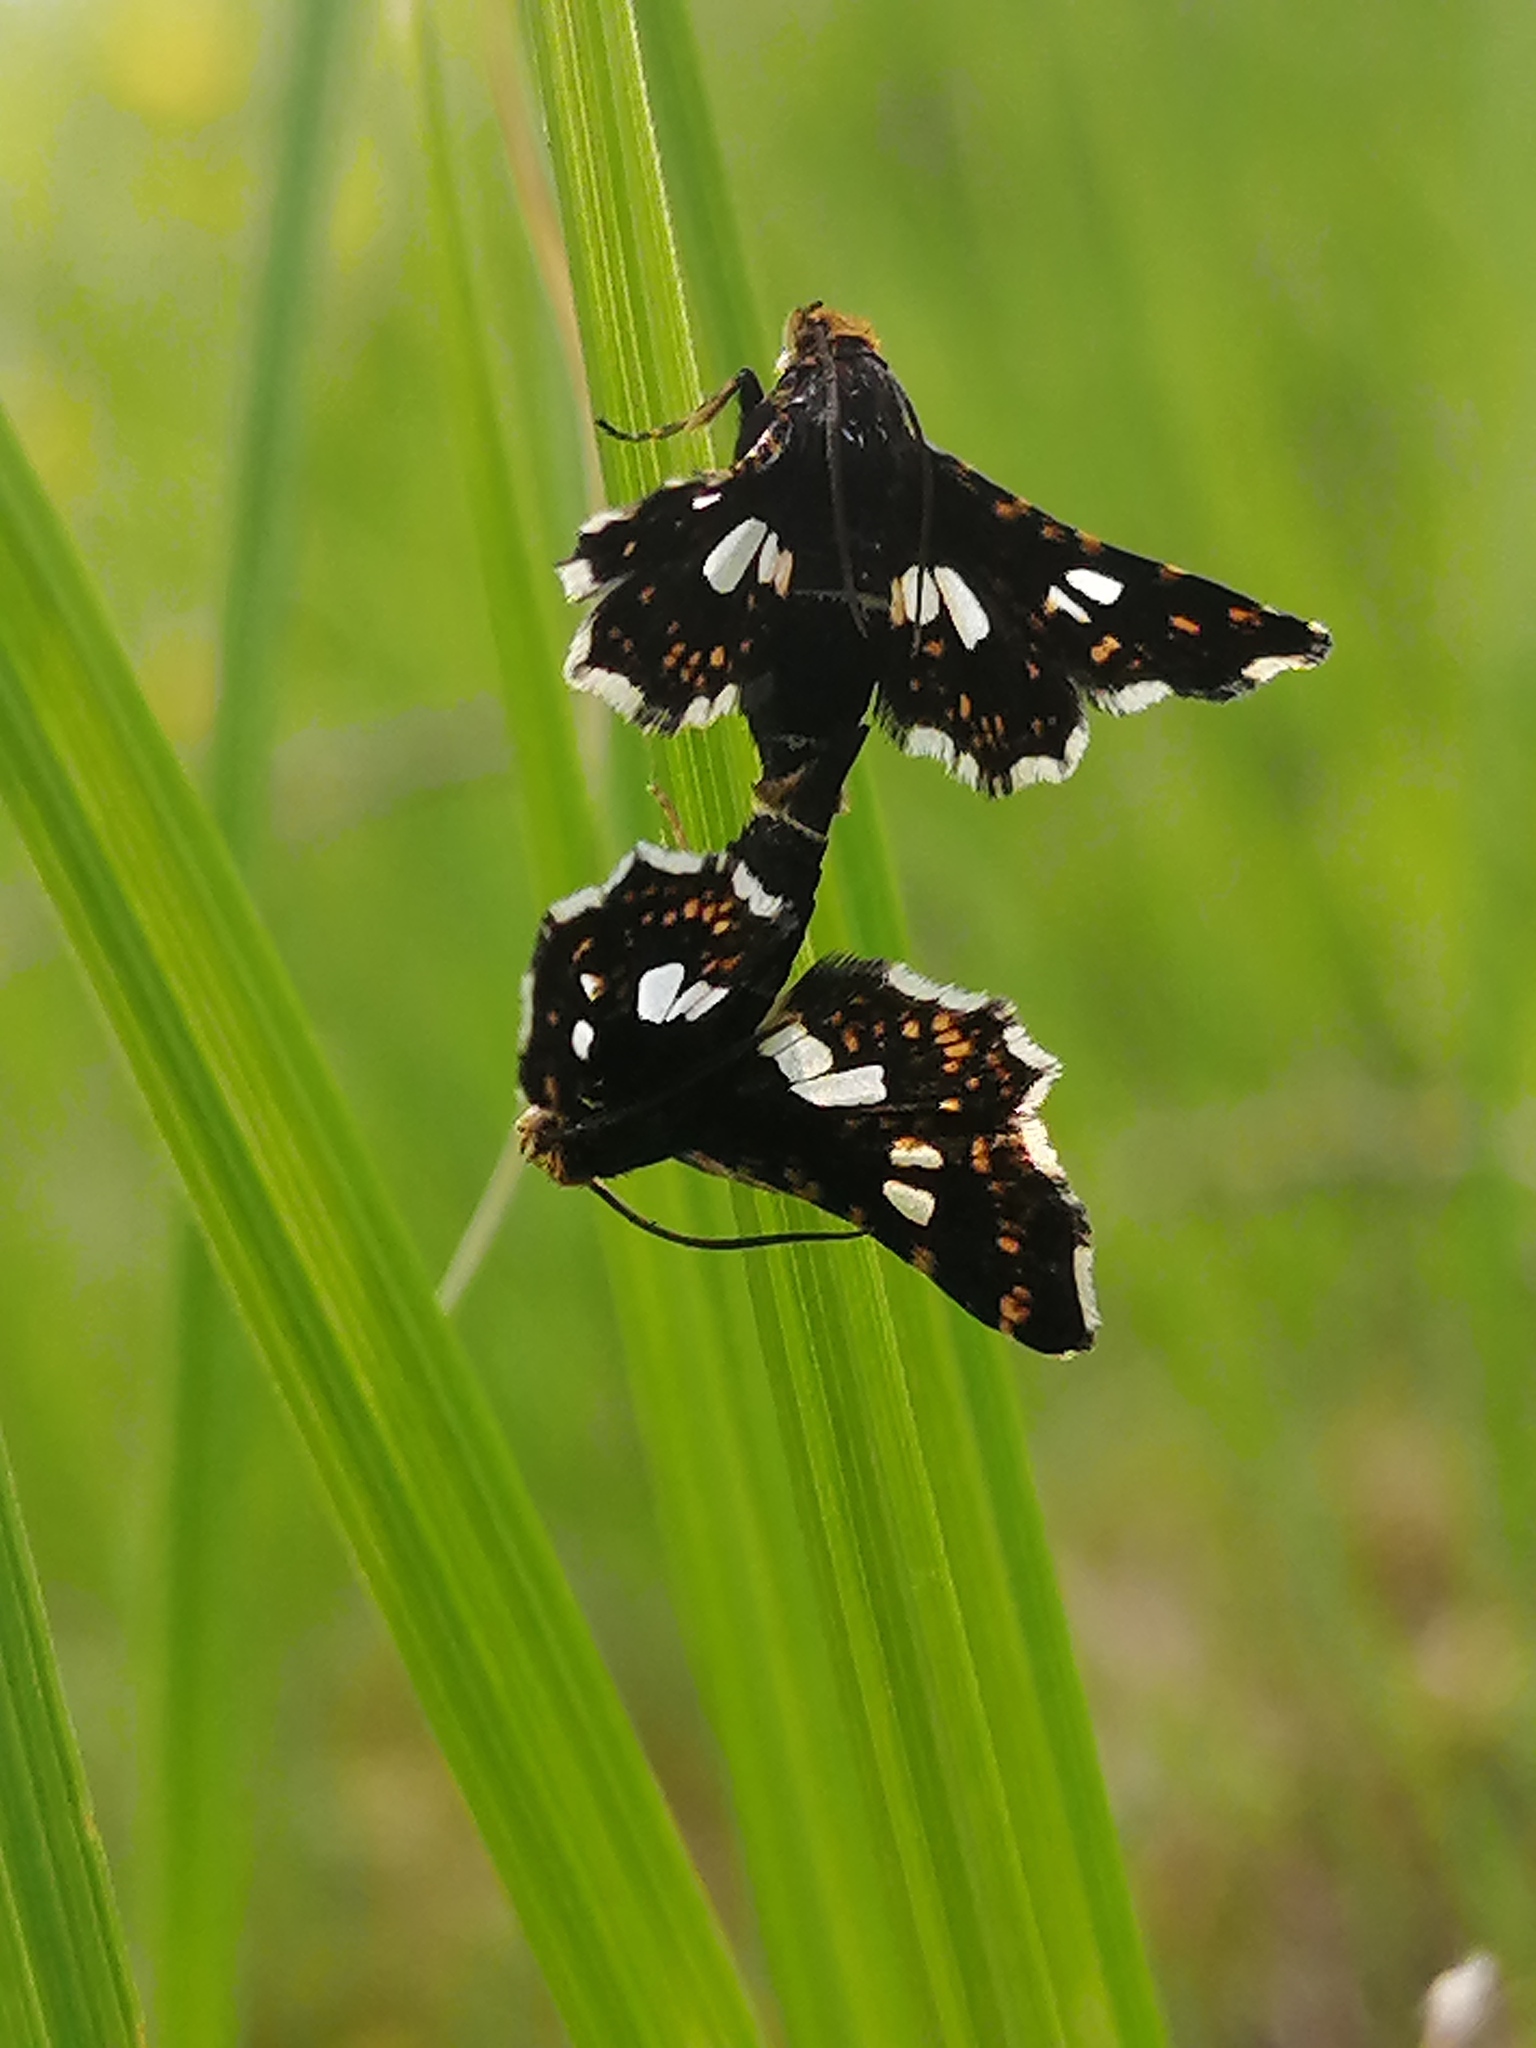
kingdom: Animalia
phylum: Arthropoda
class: Insecta
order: Lepidoptera
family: Thyrididae
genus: Thyris
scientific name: Thyris fenestrella
